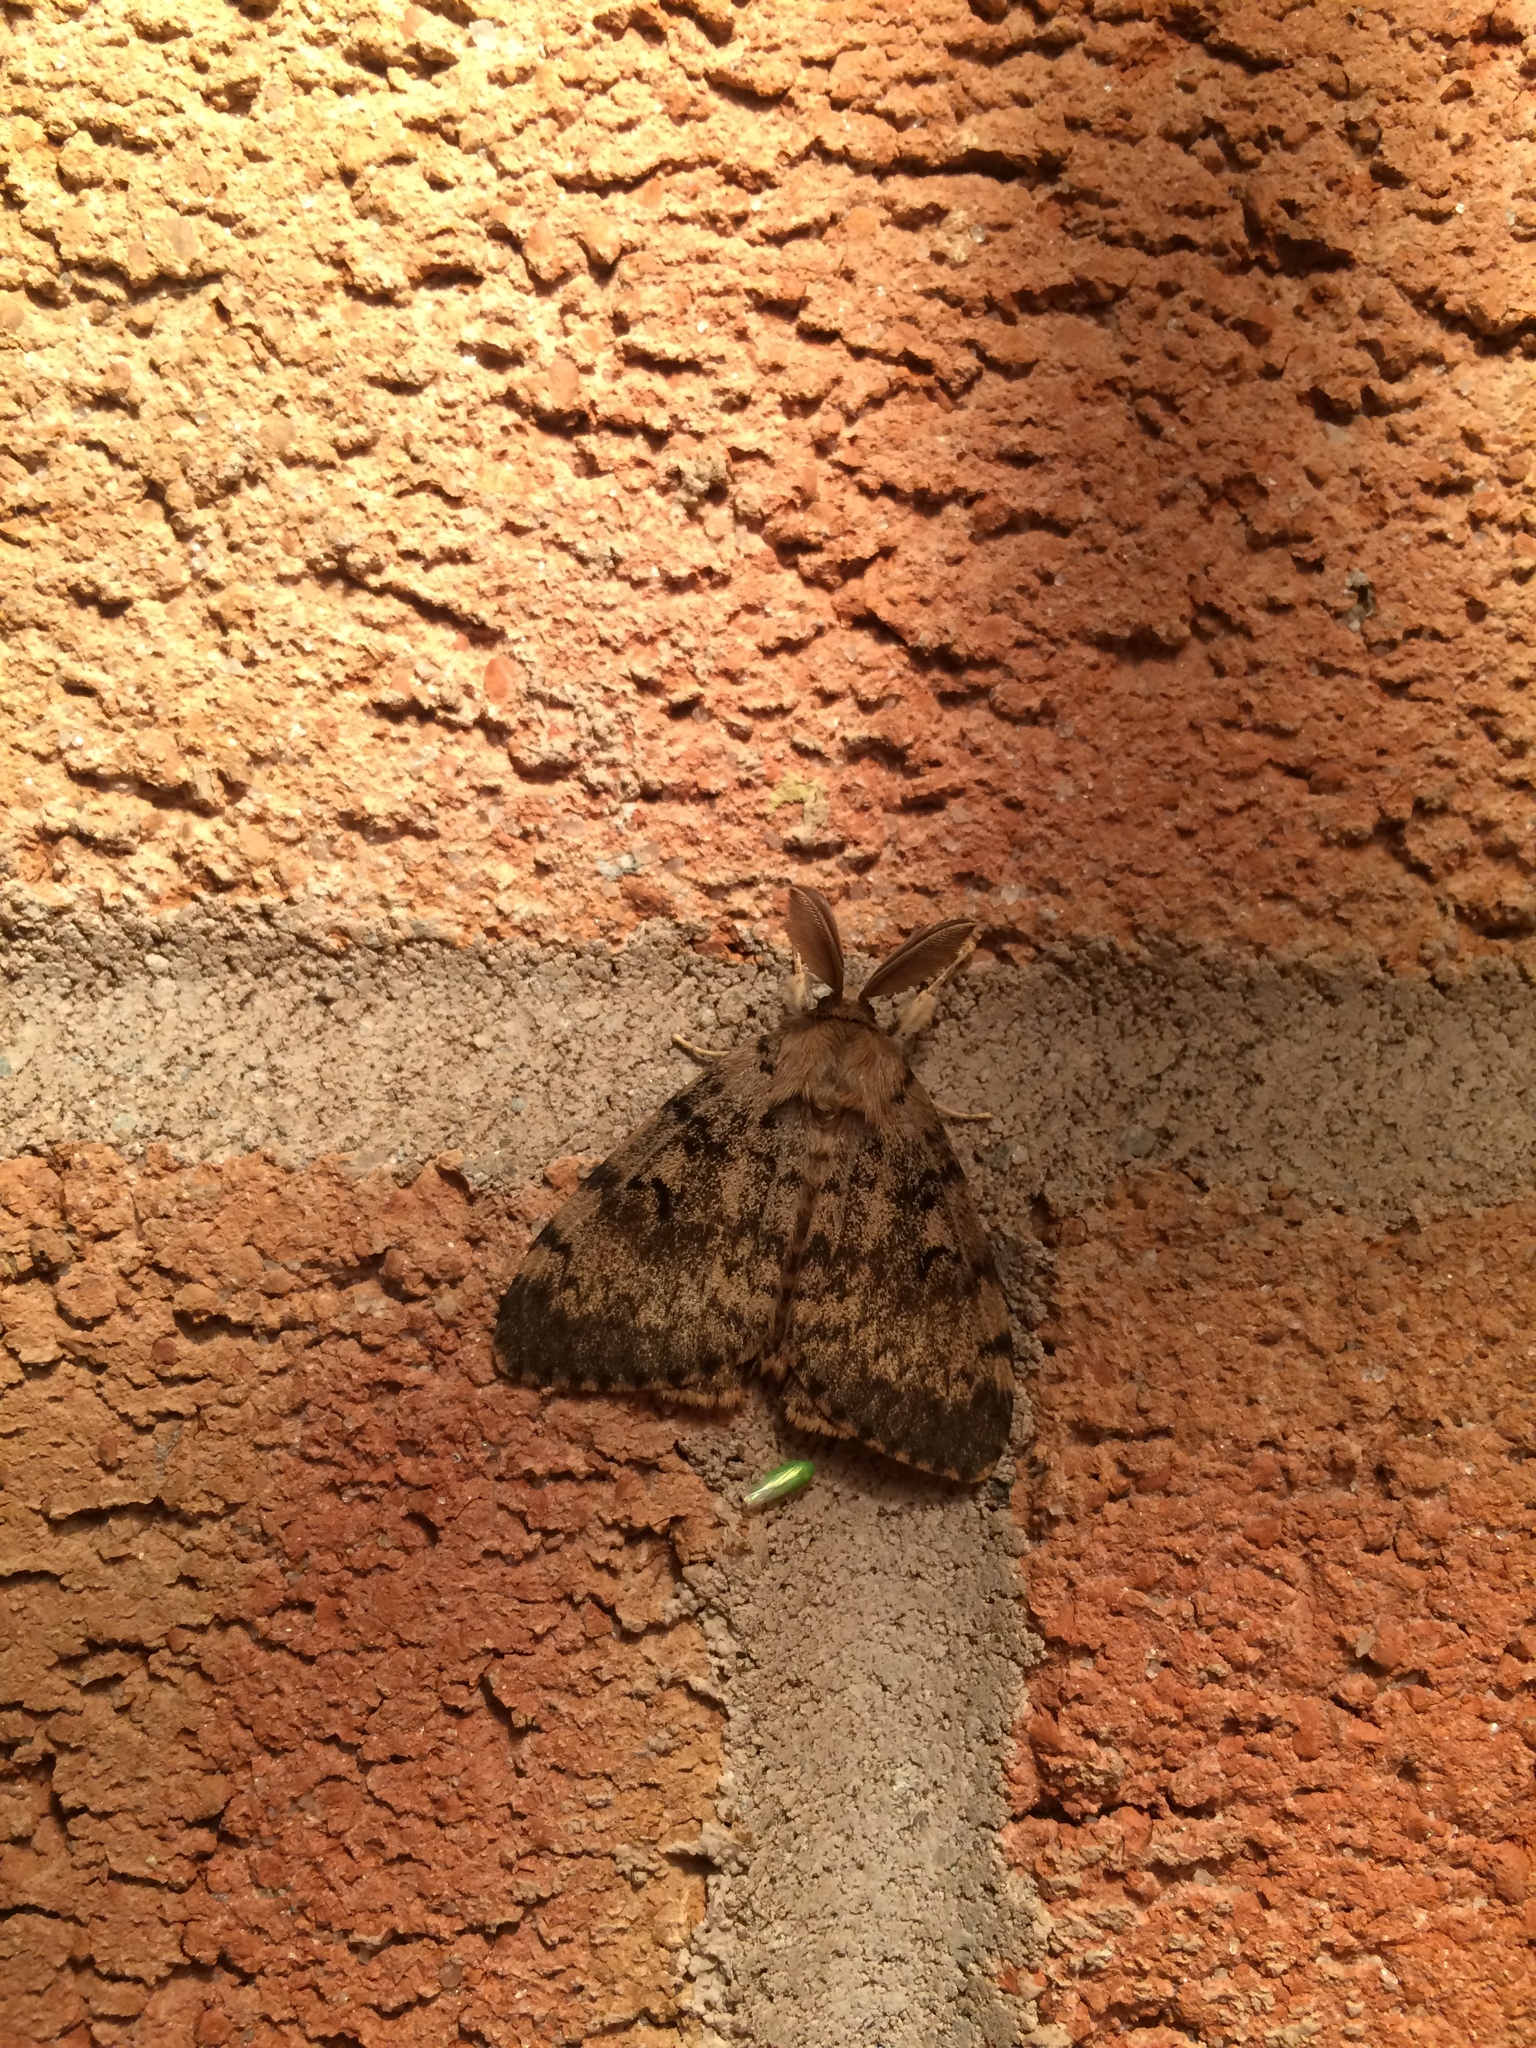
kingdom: Animalia
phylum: Arthropoda
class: Insecta
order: Lepidoptera
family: Erebidae
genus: Lymantria
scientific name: Lymantria dispar
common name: Gypsy moth
